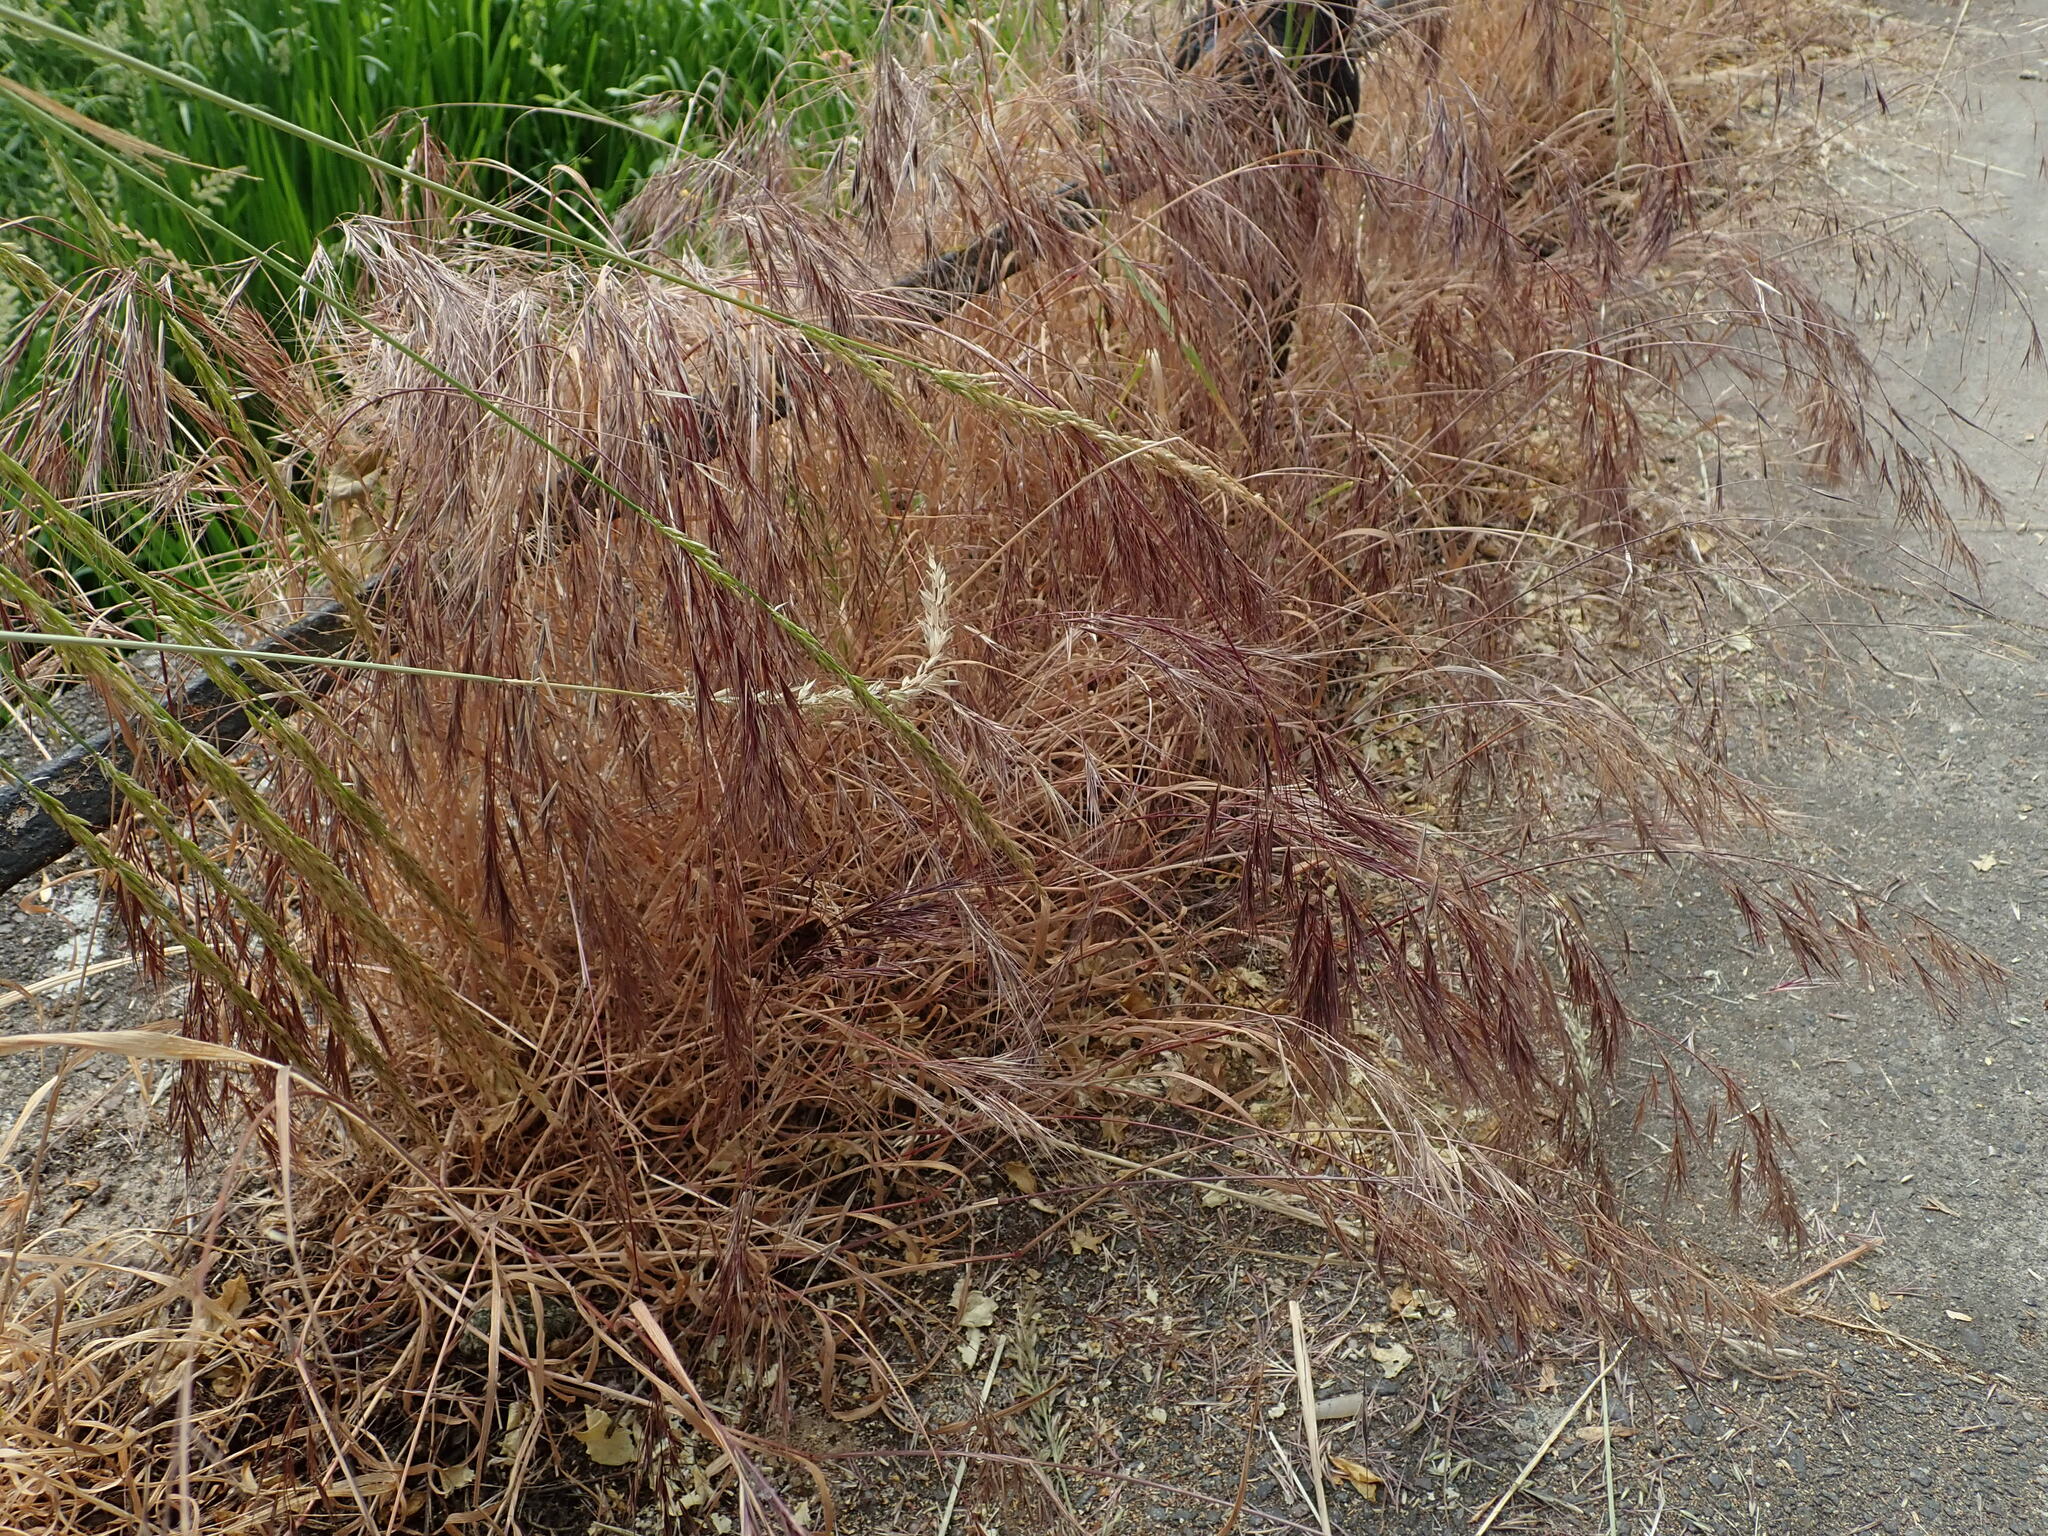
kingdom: Plantae
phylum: Tracheophyta
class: Liliopsida
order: Poales
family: Poaceae
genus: Bromus
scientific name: Bromus madritensis
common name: Compact brome
